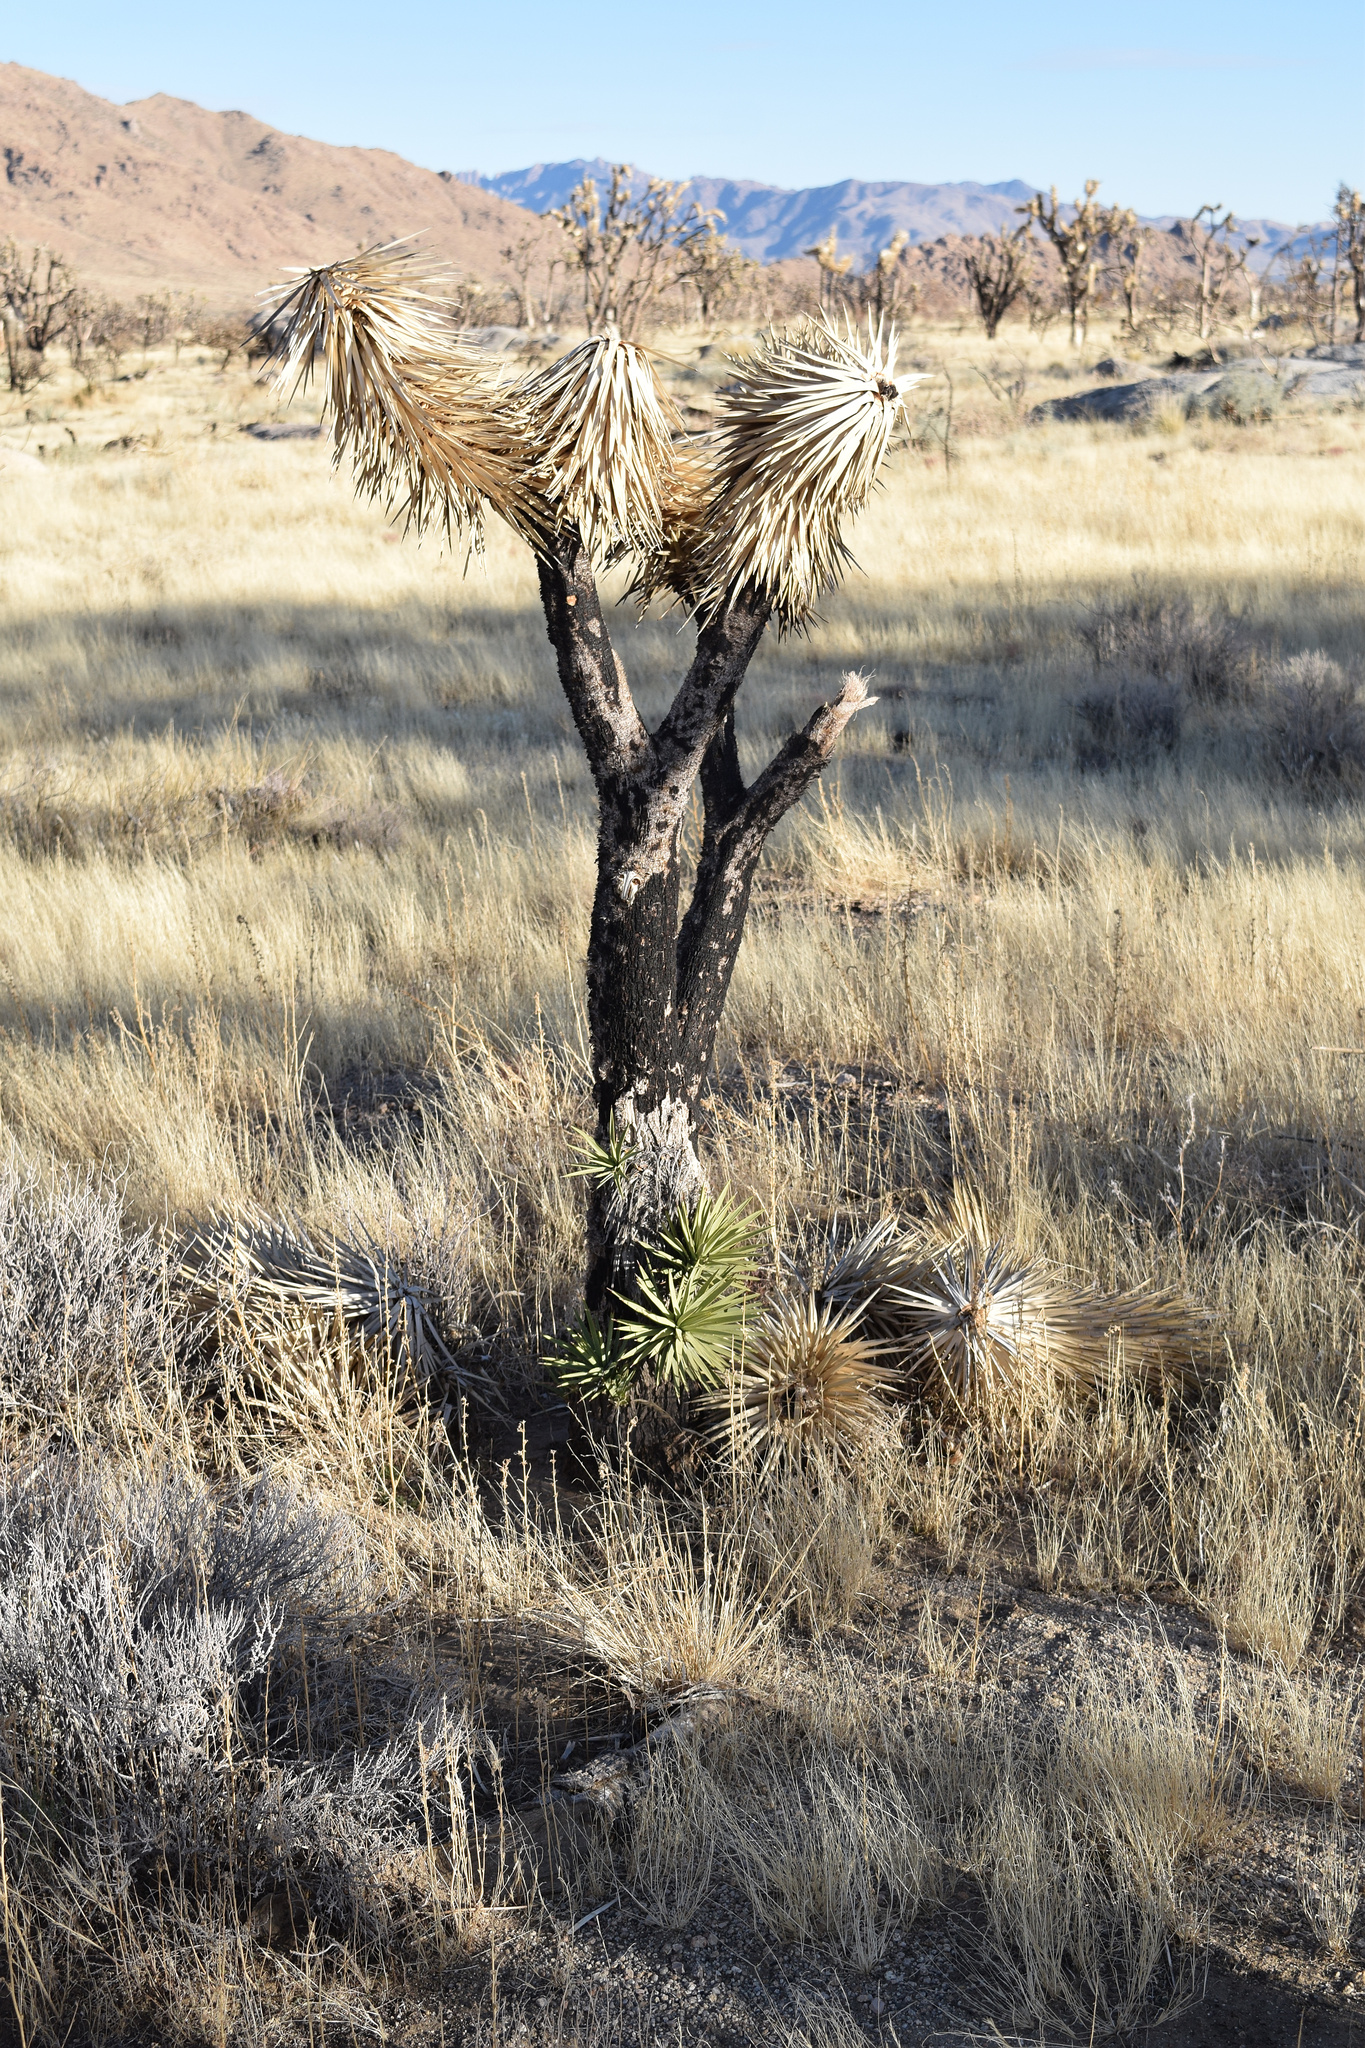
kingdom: Plantae
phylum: Tracheophyta
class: Liliopsida
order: Asparagales
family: Asparagaceae
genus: Yucca
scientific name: Yucca brevifolia
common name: Joshua tree
